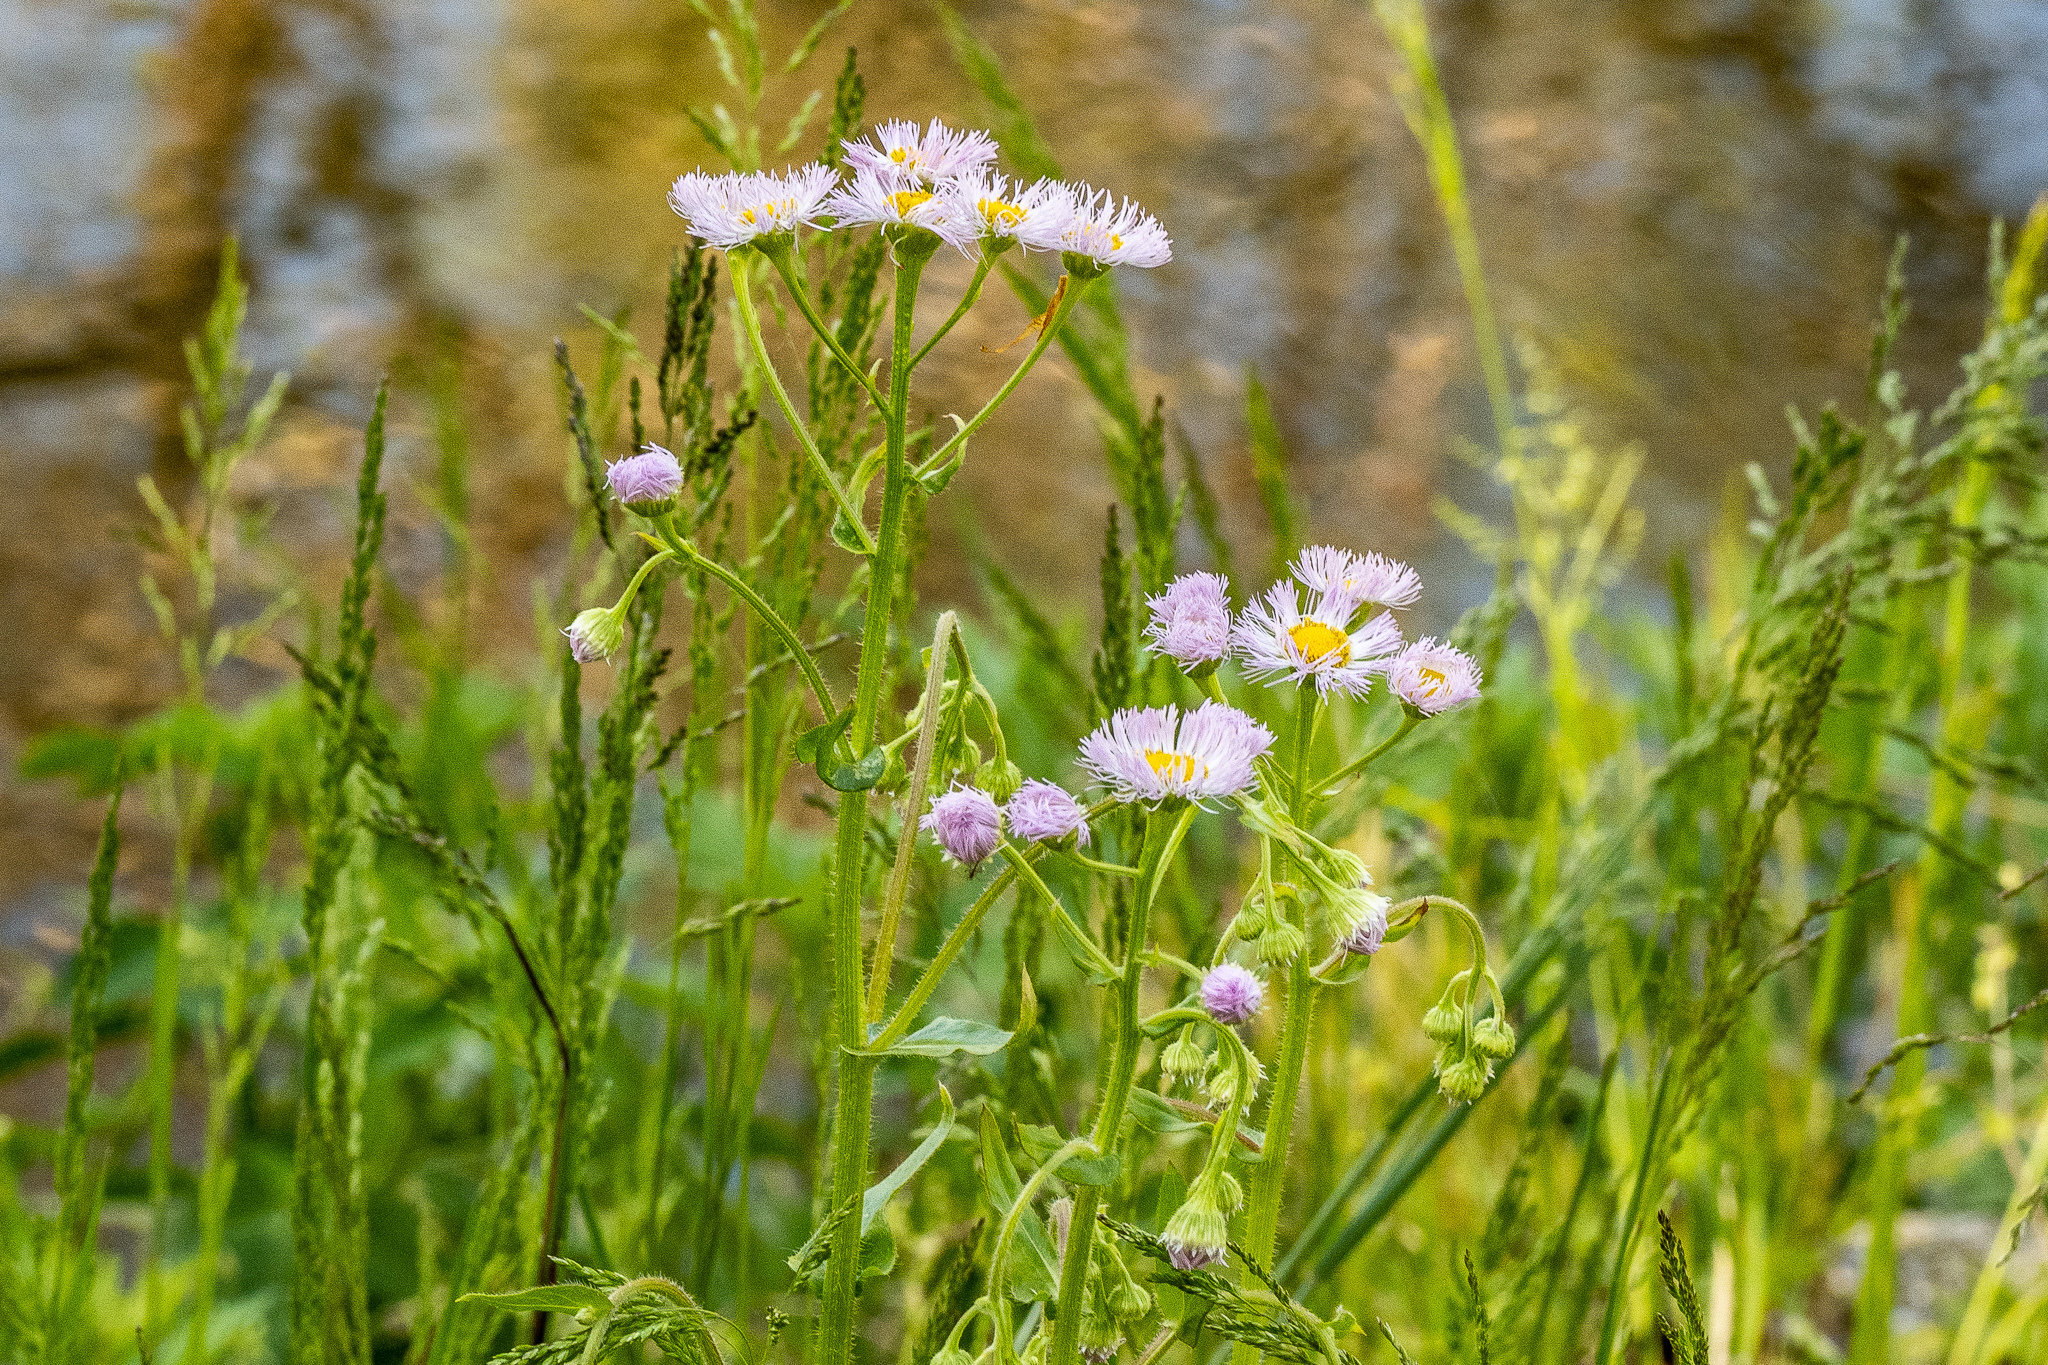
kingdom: Plantae
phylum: Tracheophyta
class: Magnoliopsida
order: Asterales
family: Asteraceae
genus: Erigeron
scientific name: Erigeron philadelphicus
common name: Robin's-plantain
